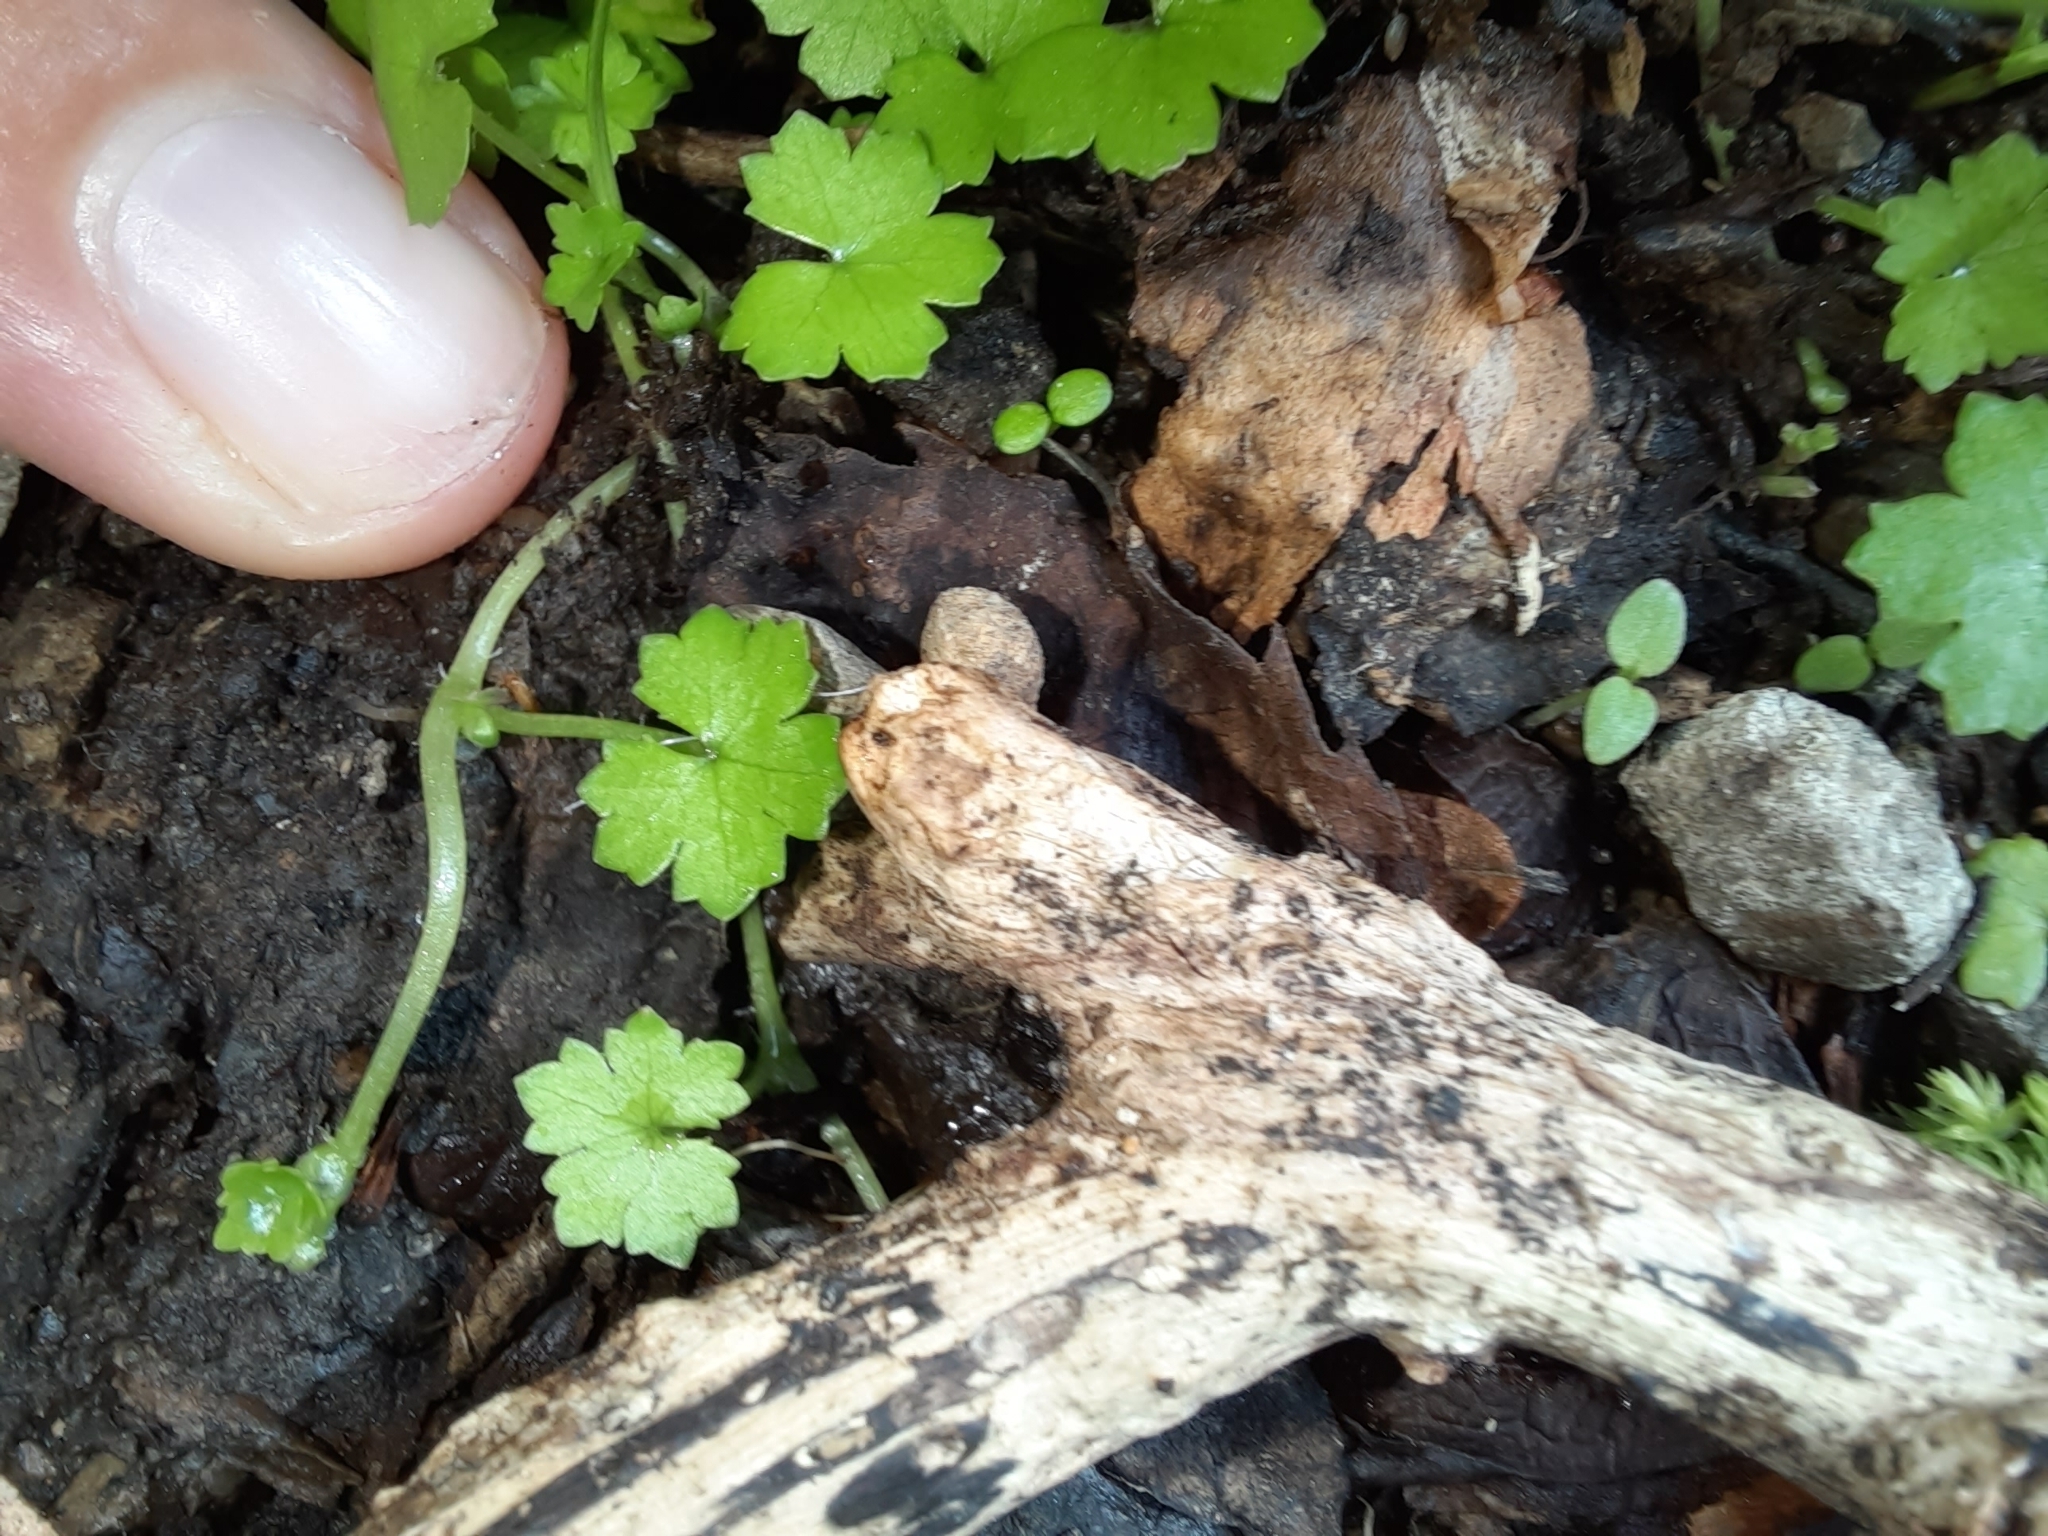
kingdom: Plantae
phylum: Tracheophyta
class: Magnoliopsida
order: Apiales
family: Araliaceae
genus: Hydrocotyle
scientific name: Hydrocotyle heteromeria
